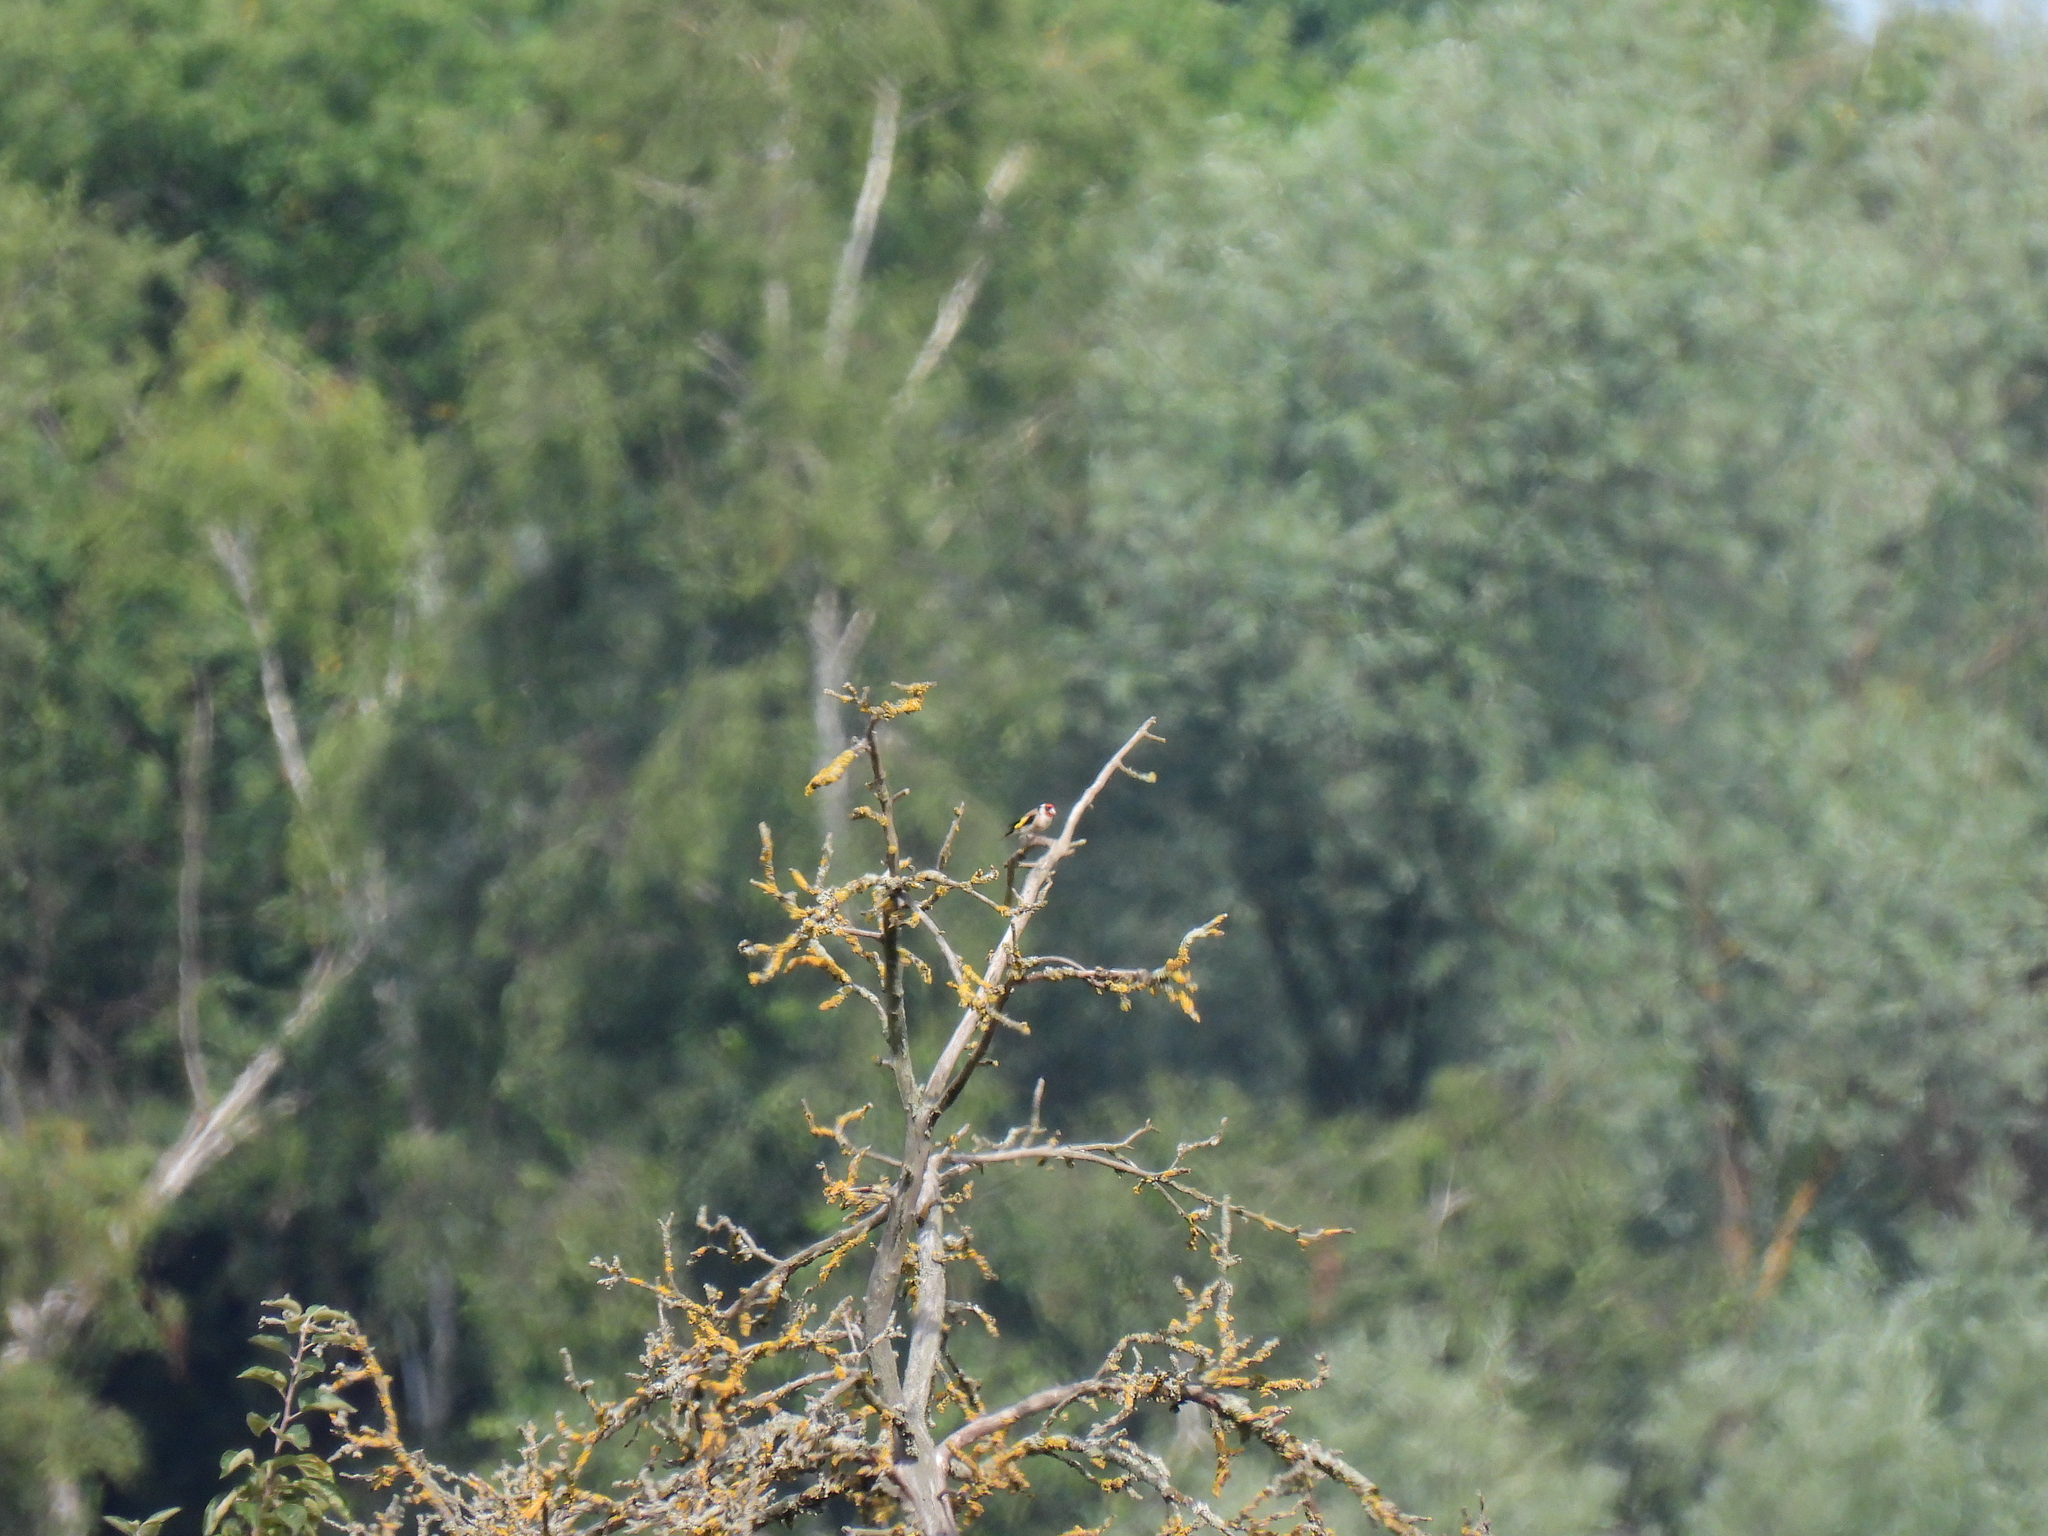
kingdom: Animalia
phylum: Chordata
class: Aves
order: Passeriformes
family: Fringillidae
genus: Carduelis
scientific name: Carduelis carduelis
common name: European goldfinch
